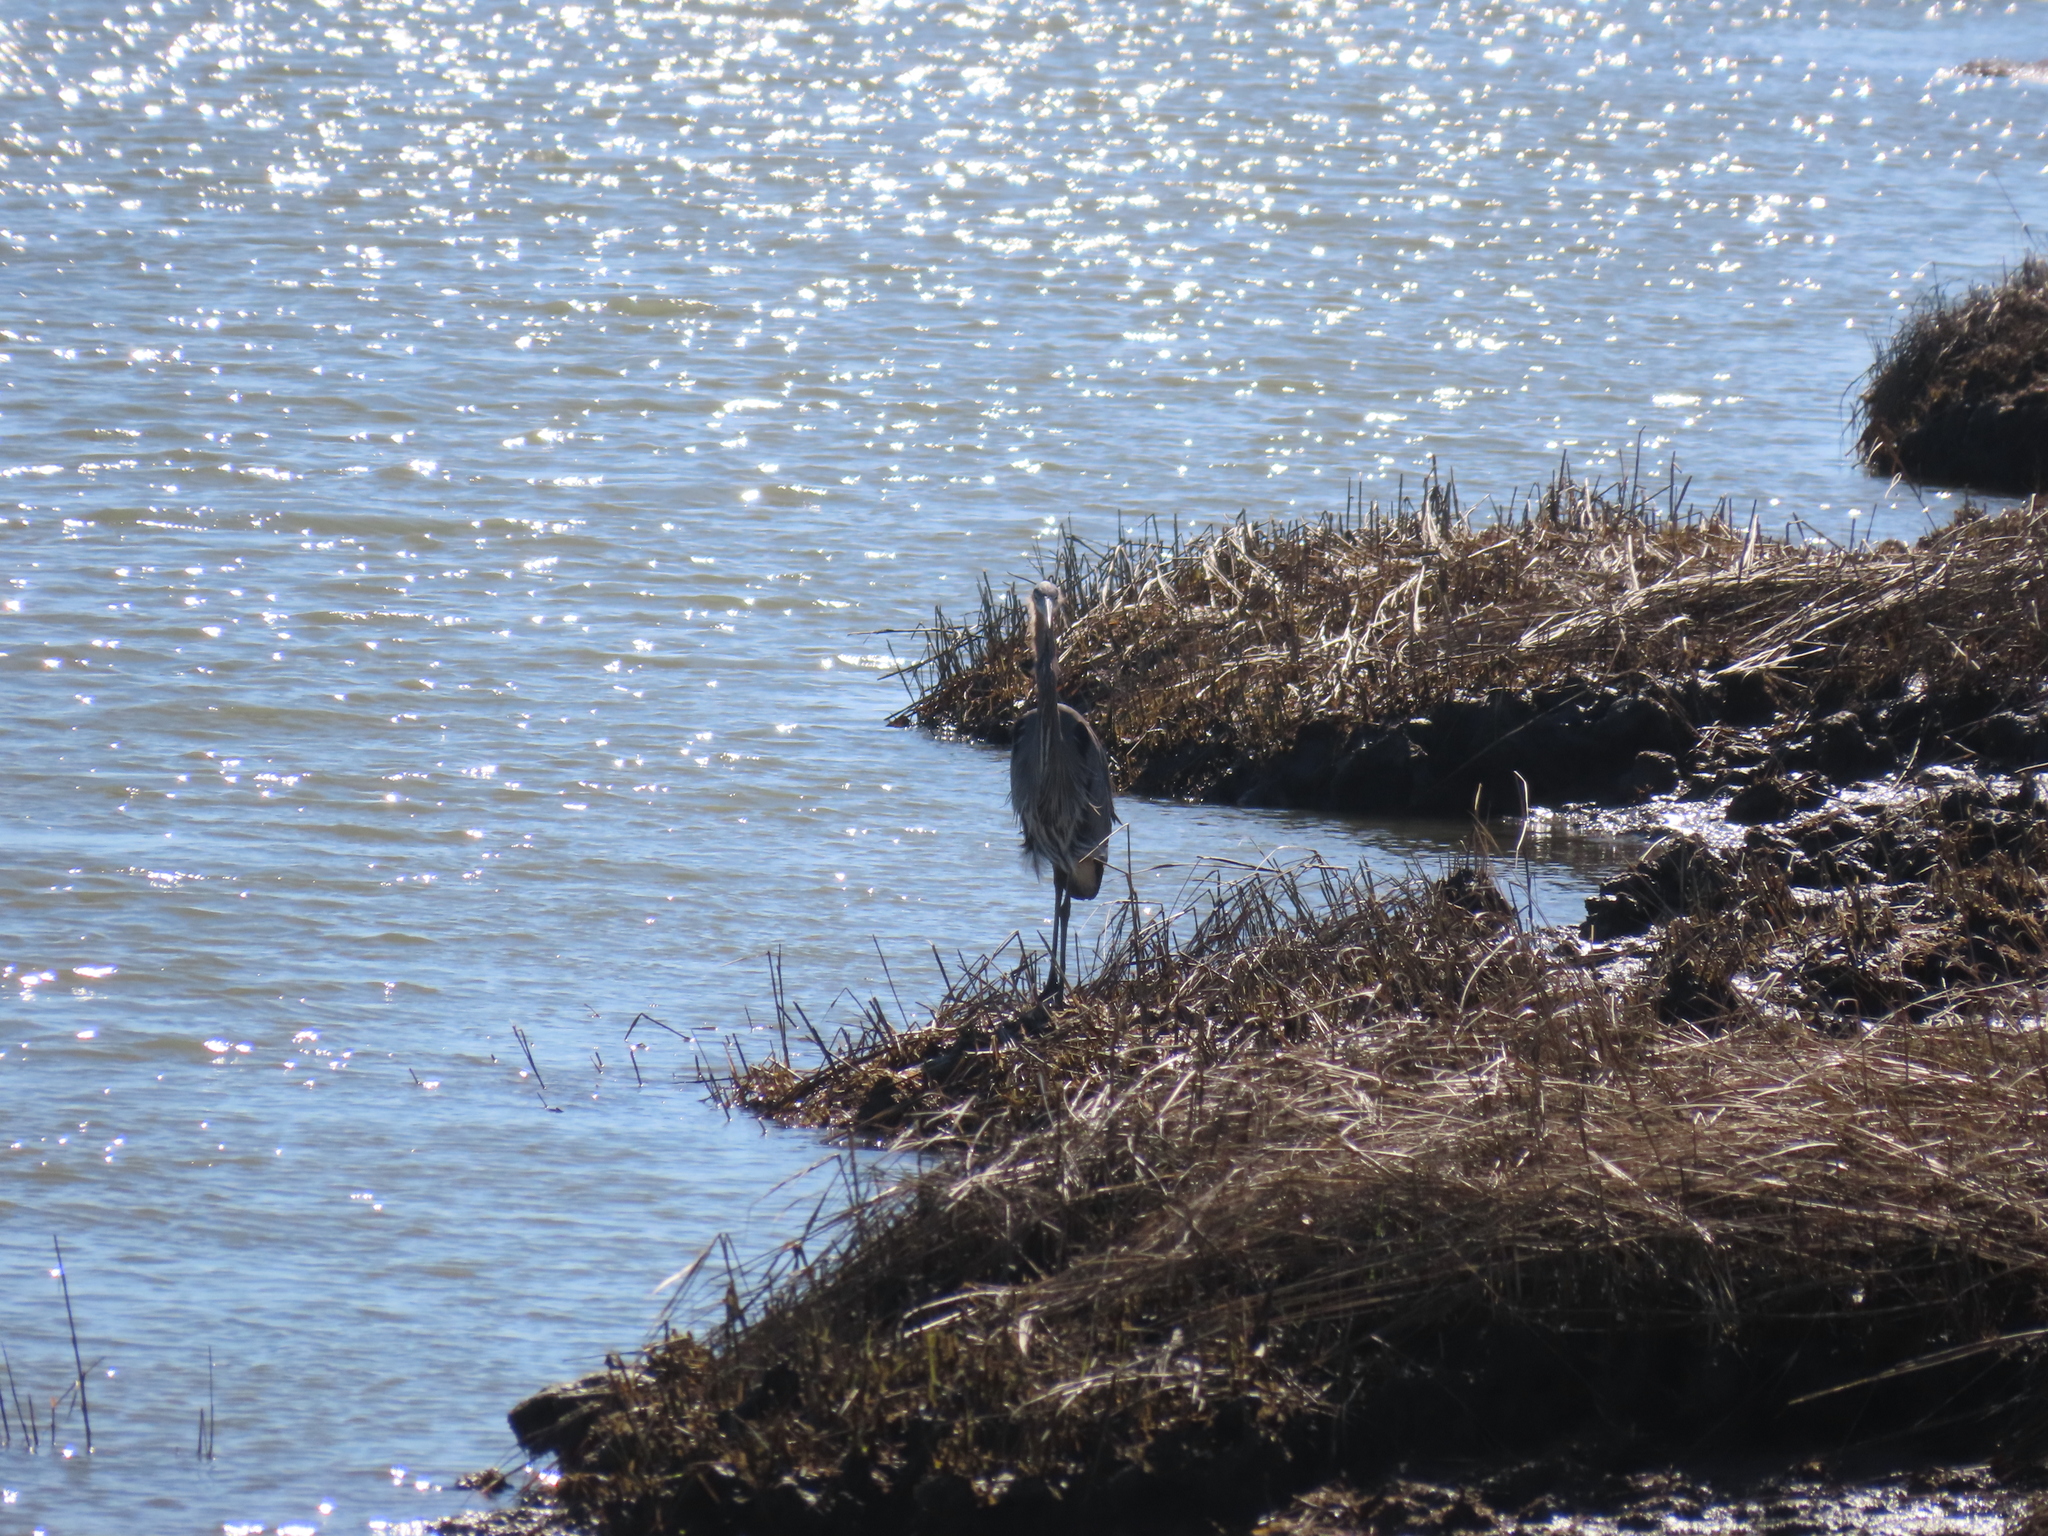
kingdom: Animalia
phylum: Chordata
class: Aves
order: Pelecaniformes
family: Ardeidae
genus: Ardea
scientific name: Ardea herodias
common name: Great blue heron
